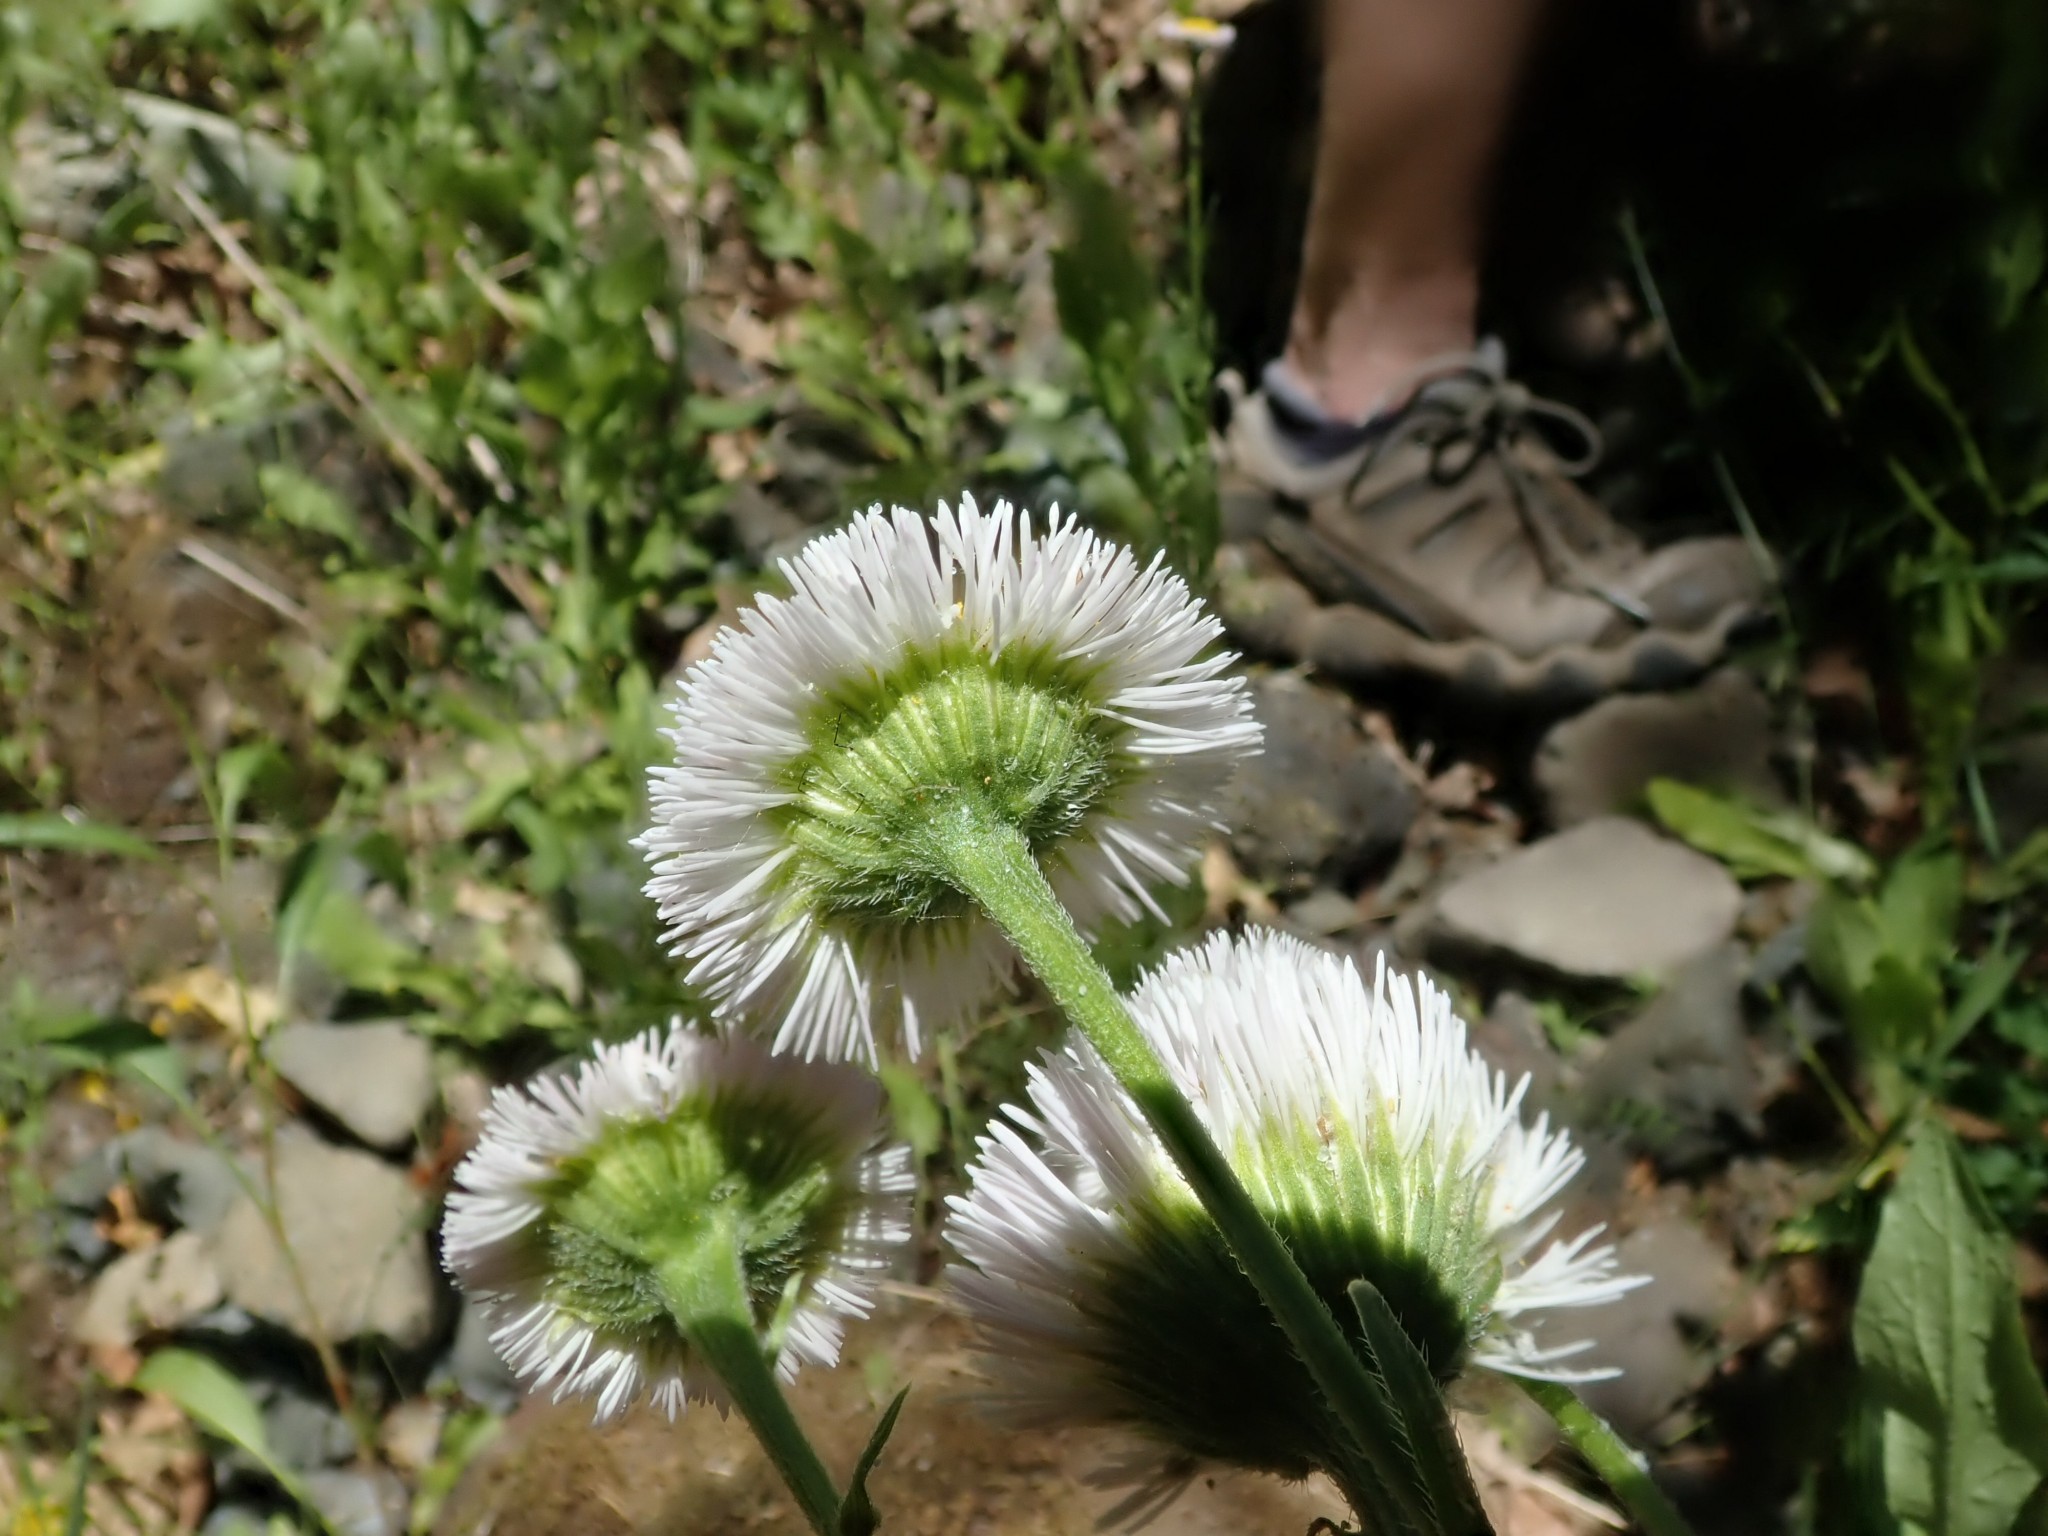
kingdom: Plantae
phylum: Tracheophyta
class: Magnoliopsida
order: Asterales
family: Asteraceae
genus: Erigeron
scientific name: Erigeron philadelphicus
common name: Robin's-plantain
